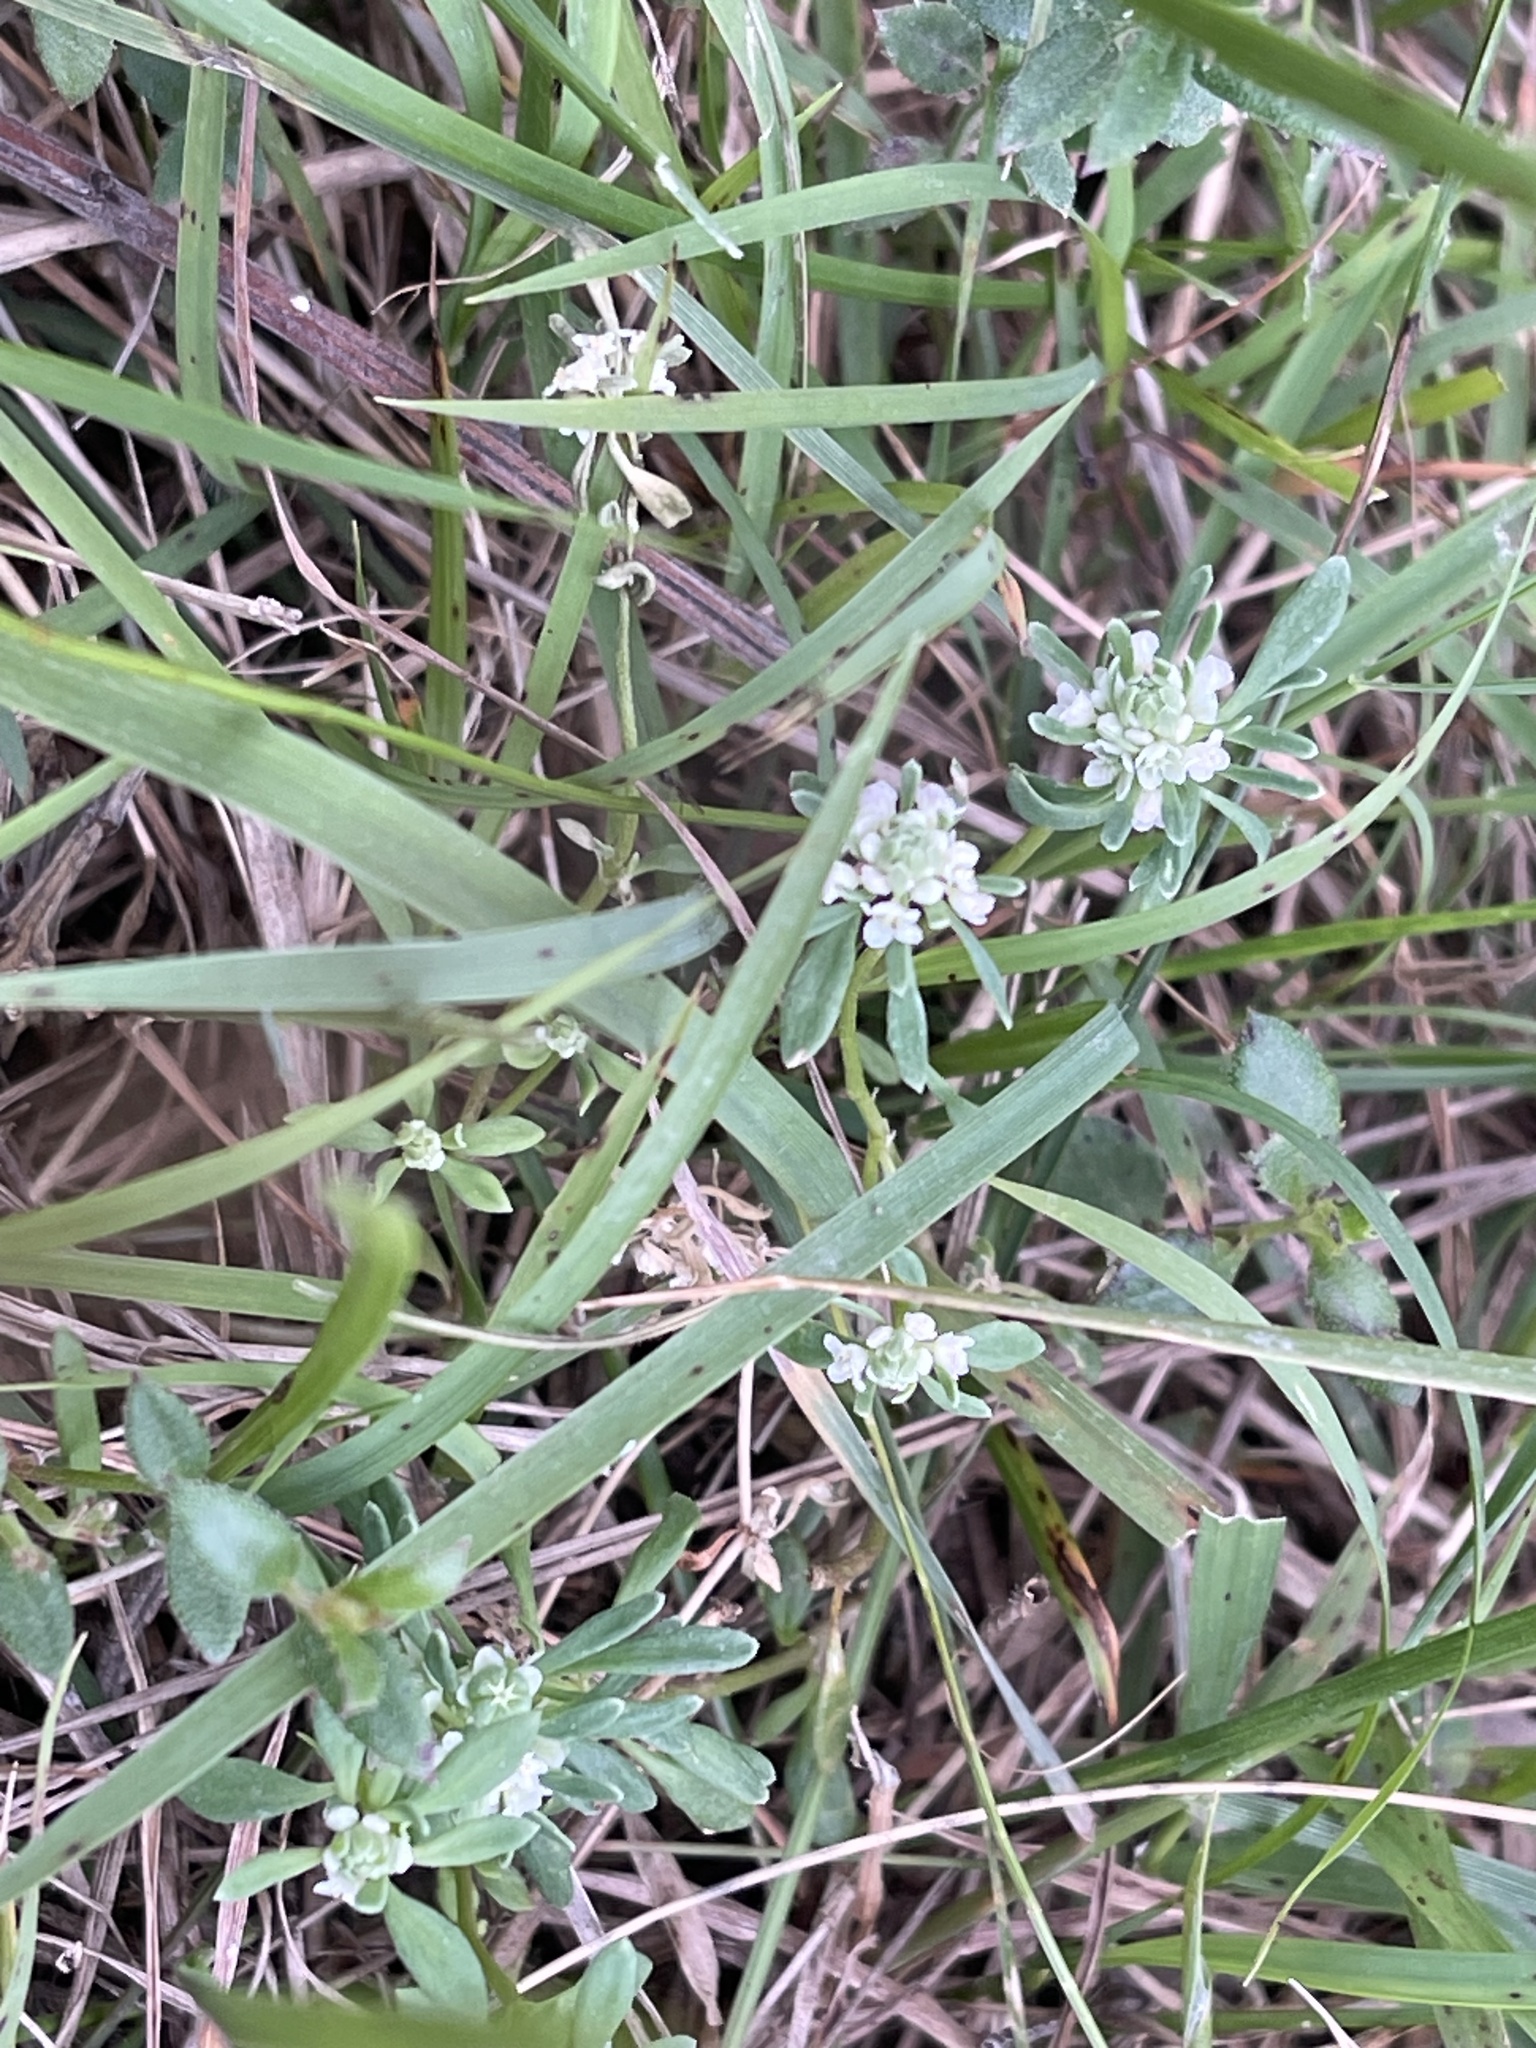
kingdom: Plantae
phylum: Tracheophyta
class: Magnoliopsida
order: Malpighiales
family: Phyllanthaceae
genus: Poranthera
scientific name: Poranthera microphylla
